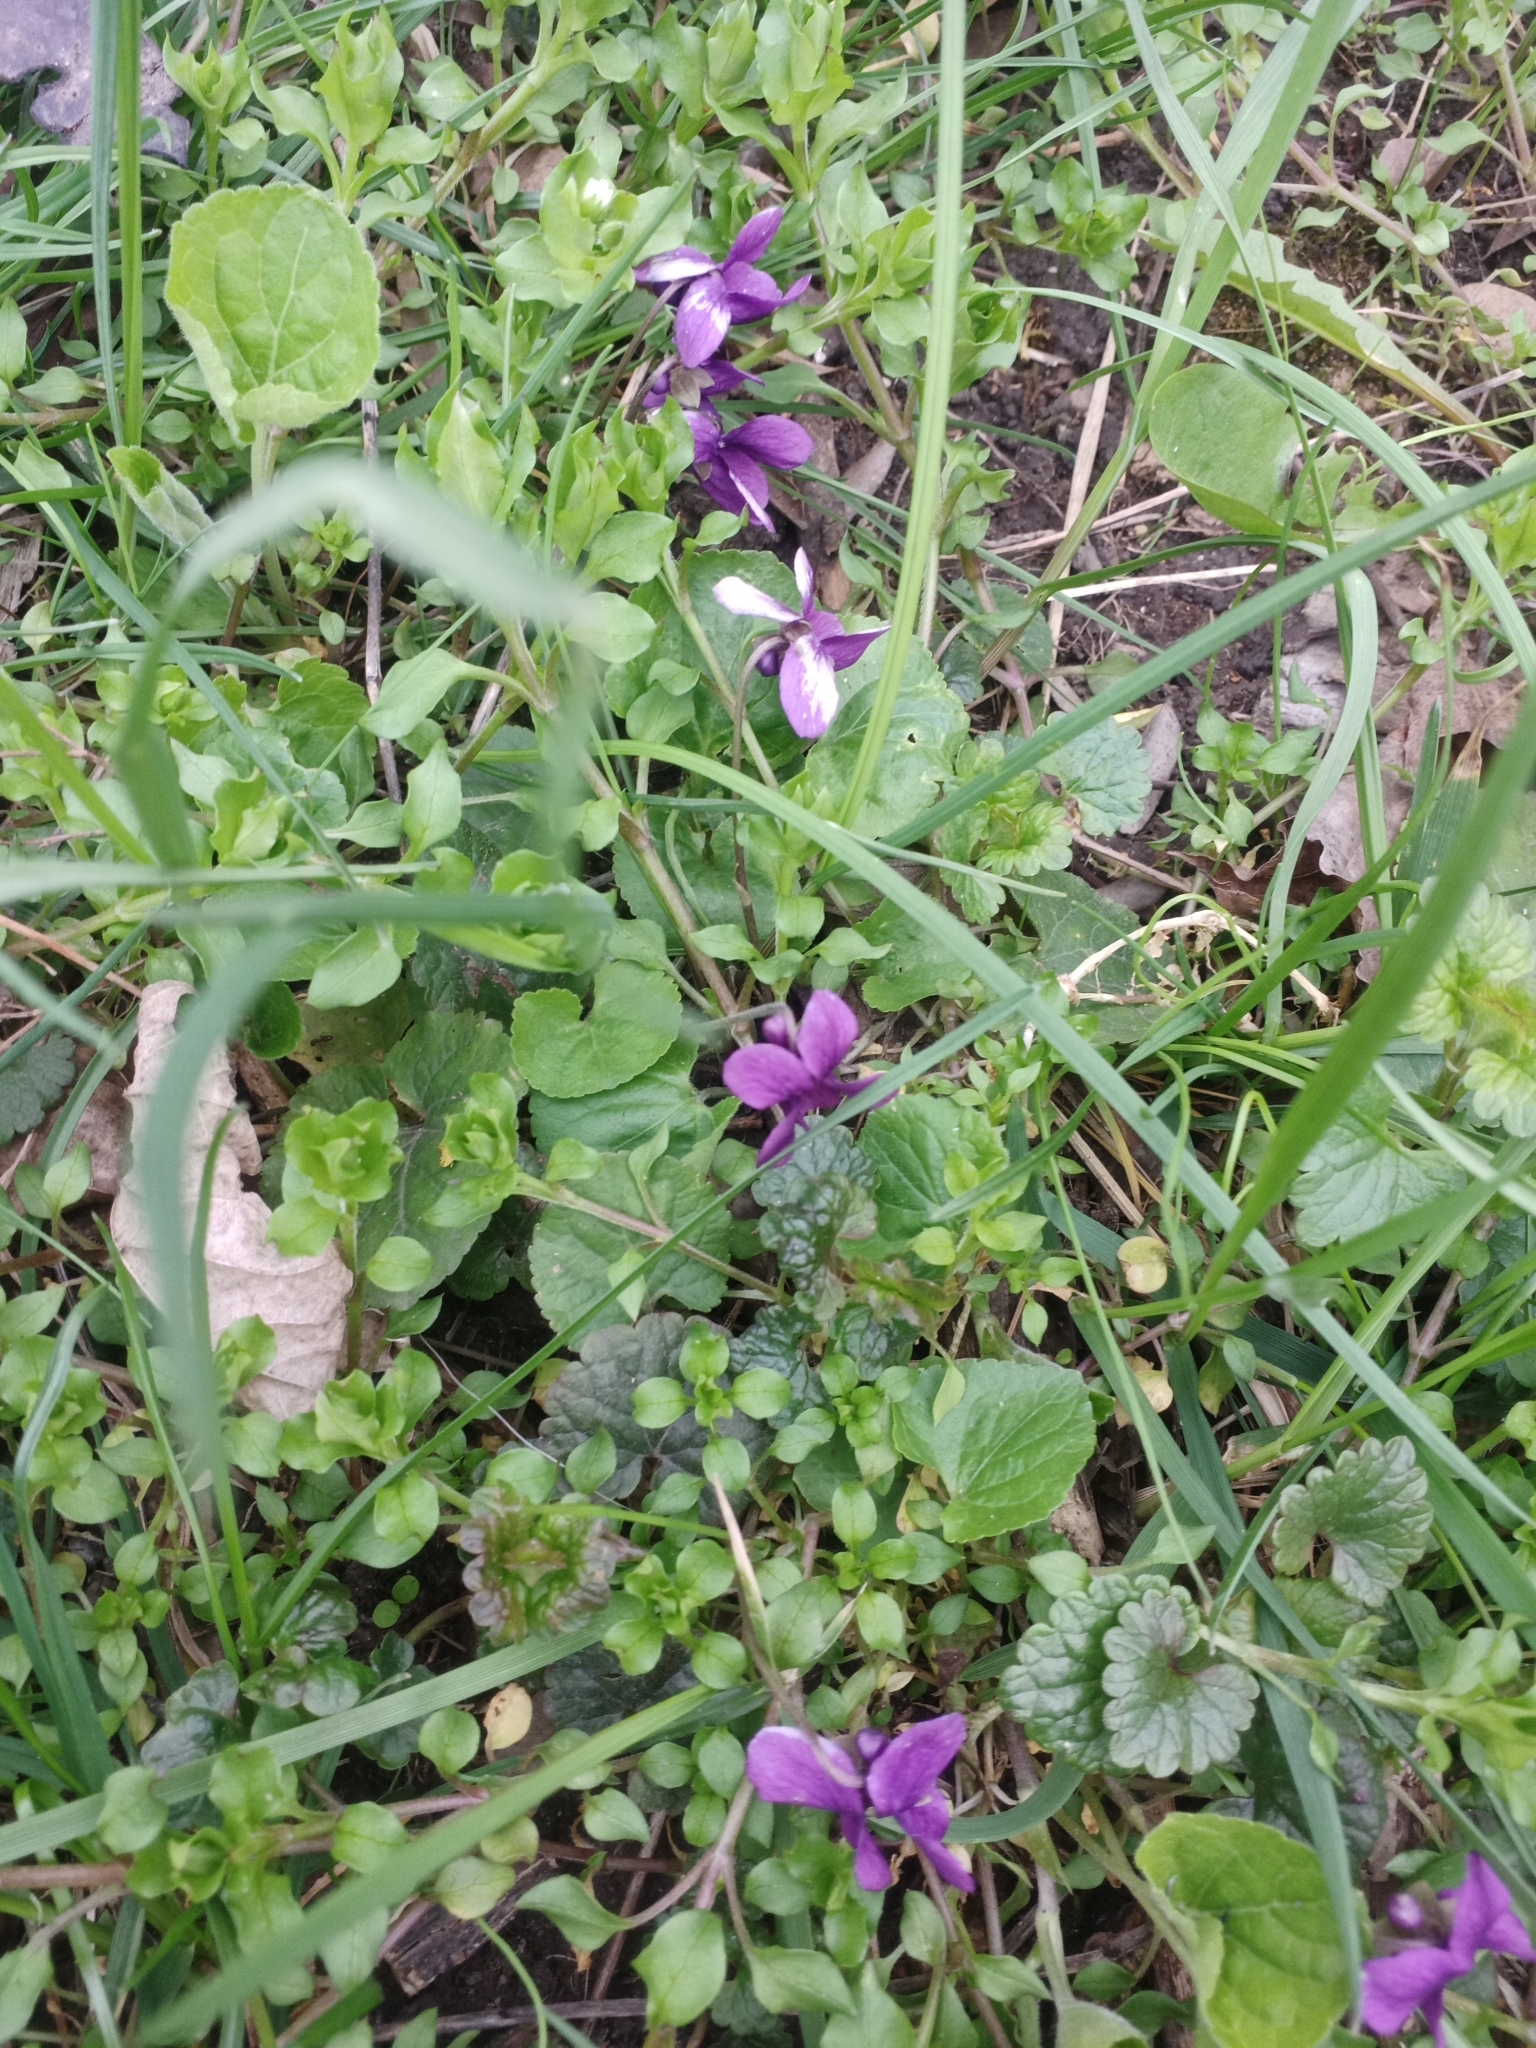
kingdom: Plantae
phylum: Tracheophyta
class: Magnoliopsida
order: Malpighiales
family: Violaceae
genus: Viola
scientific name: Viola odorata
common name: Sweet violet
